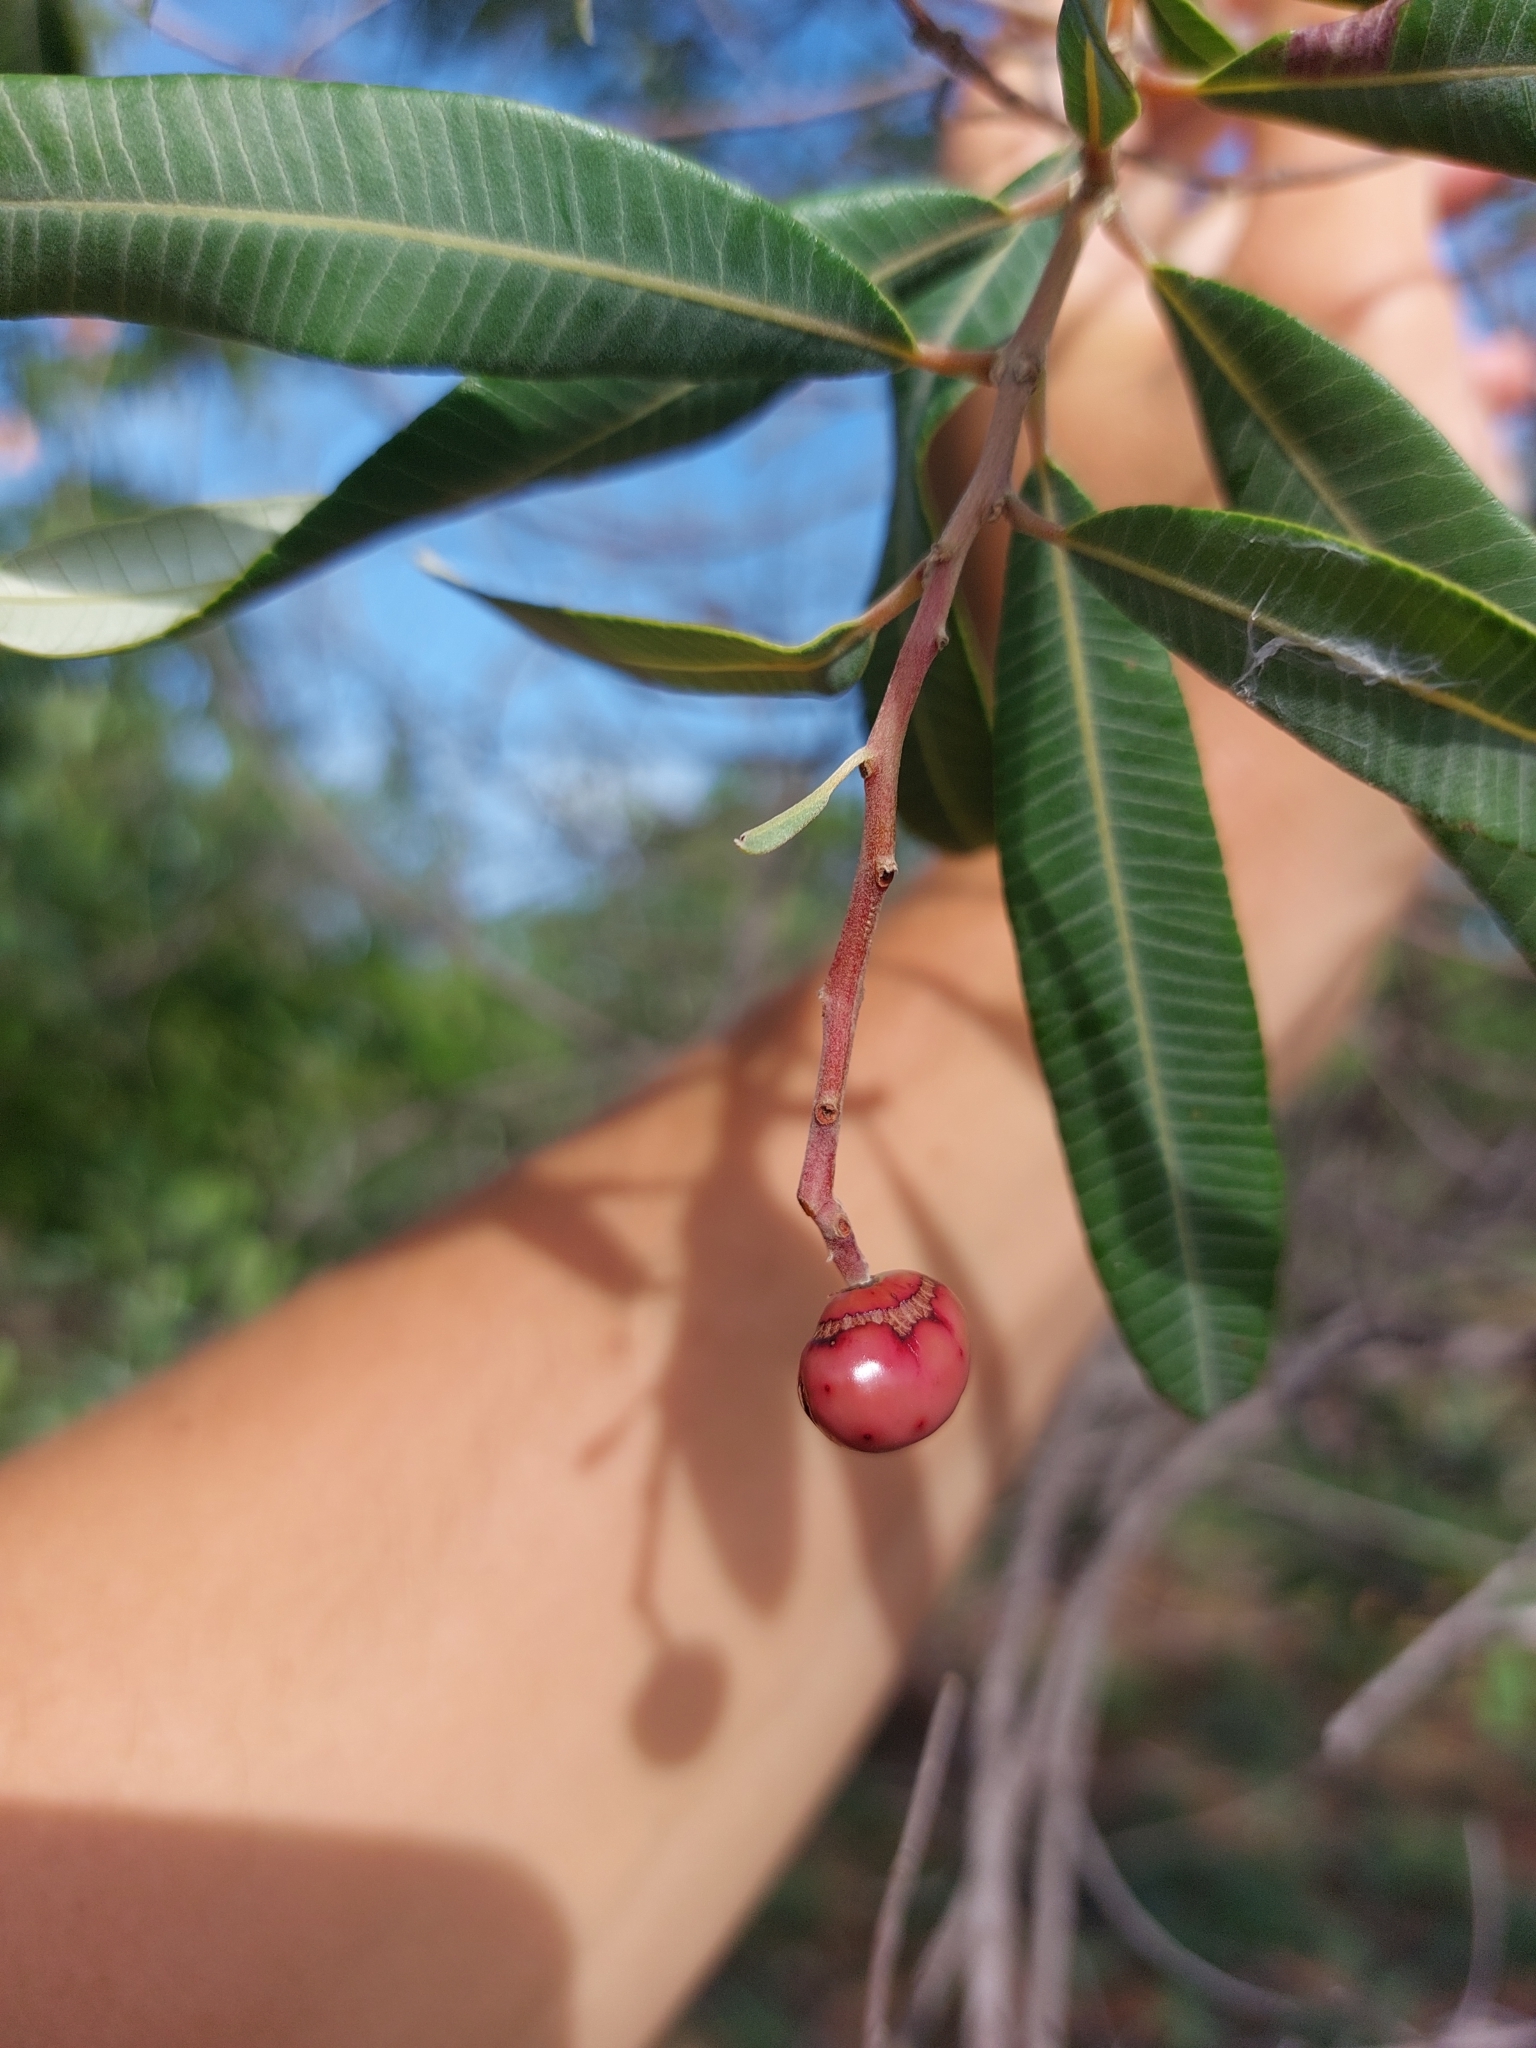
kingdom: Plantae
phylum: Tracheophyta
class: Magnoliopsida
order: Sapindales
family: Anacardiaceae
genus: Ozoroa
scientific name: Ozoroa paniculosa
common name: Bushveld ozoroa
